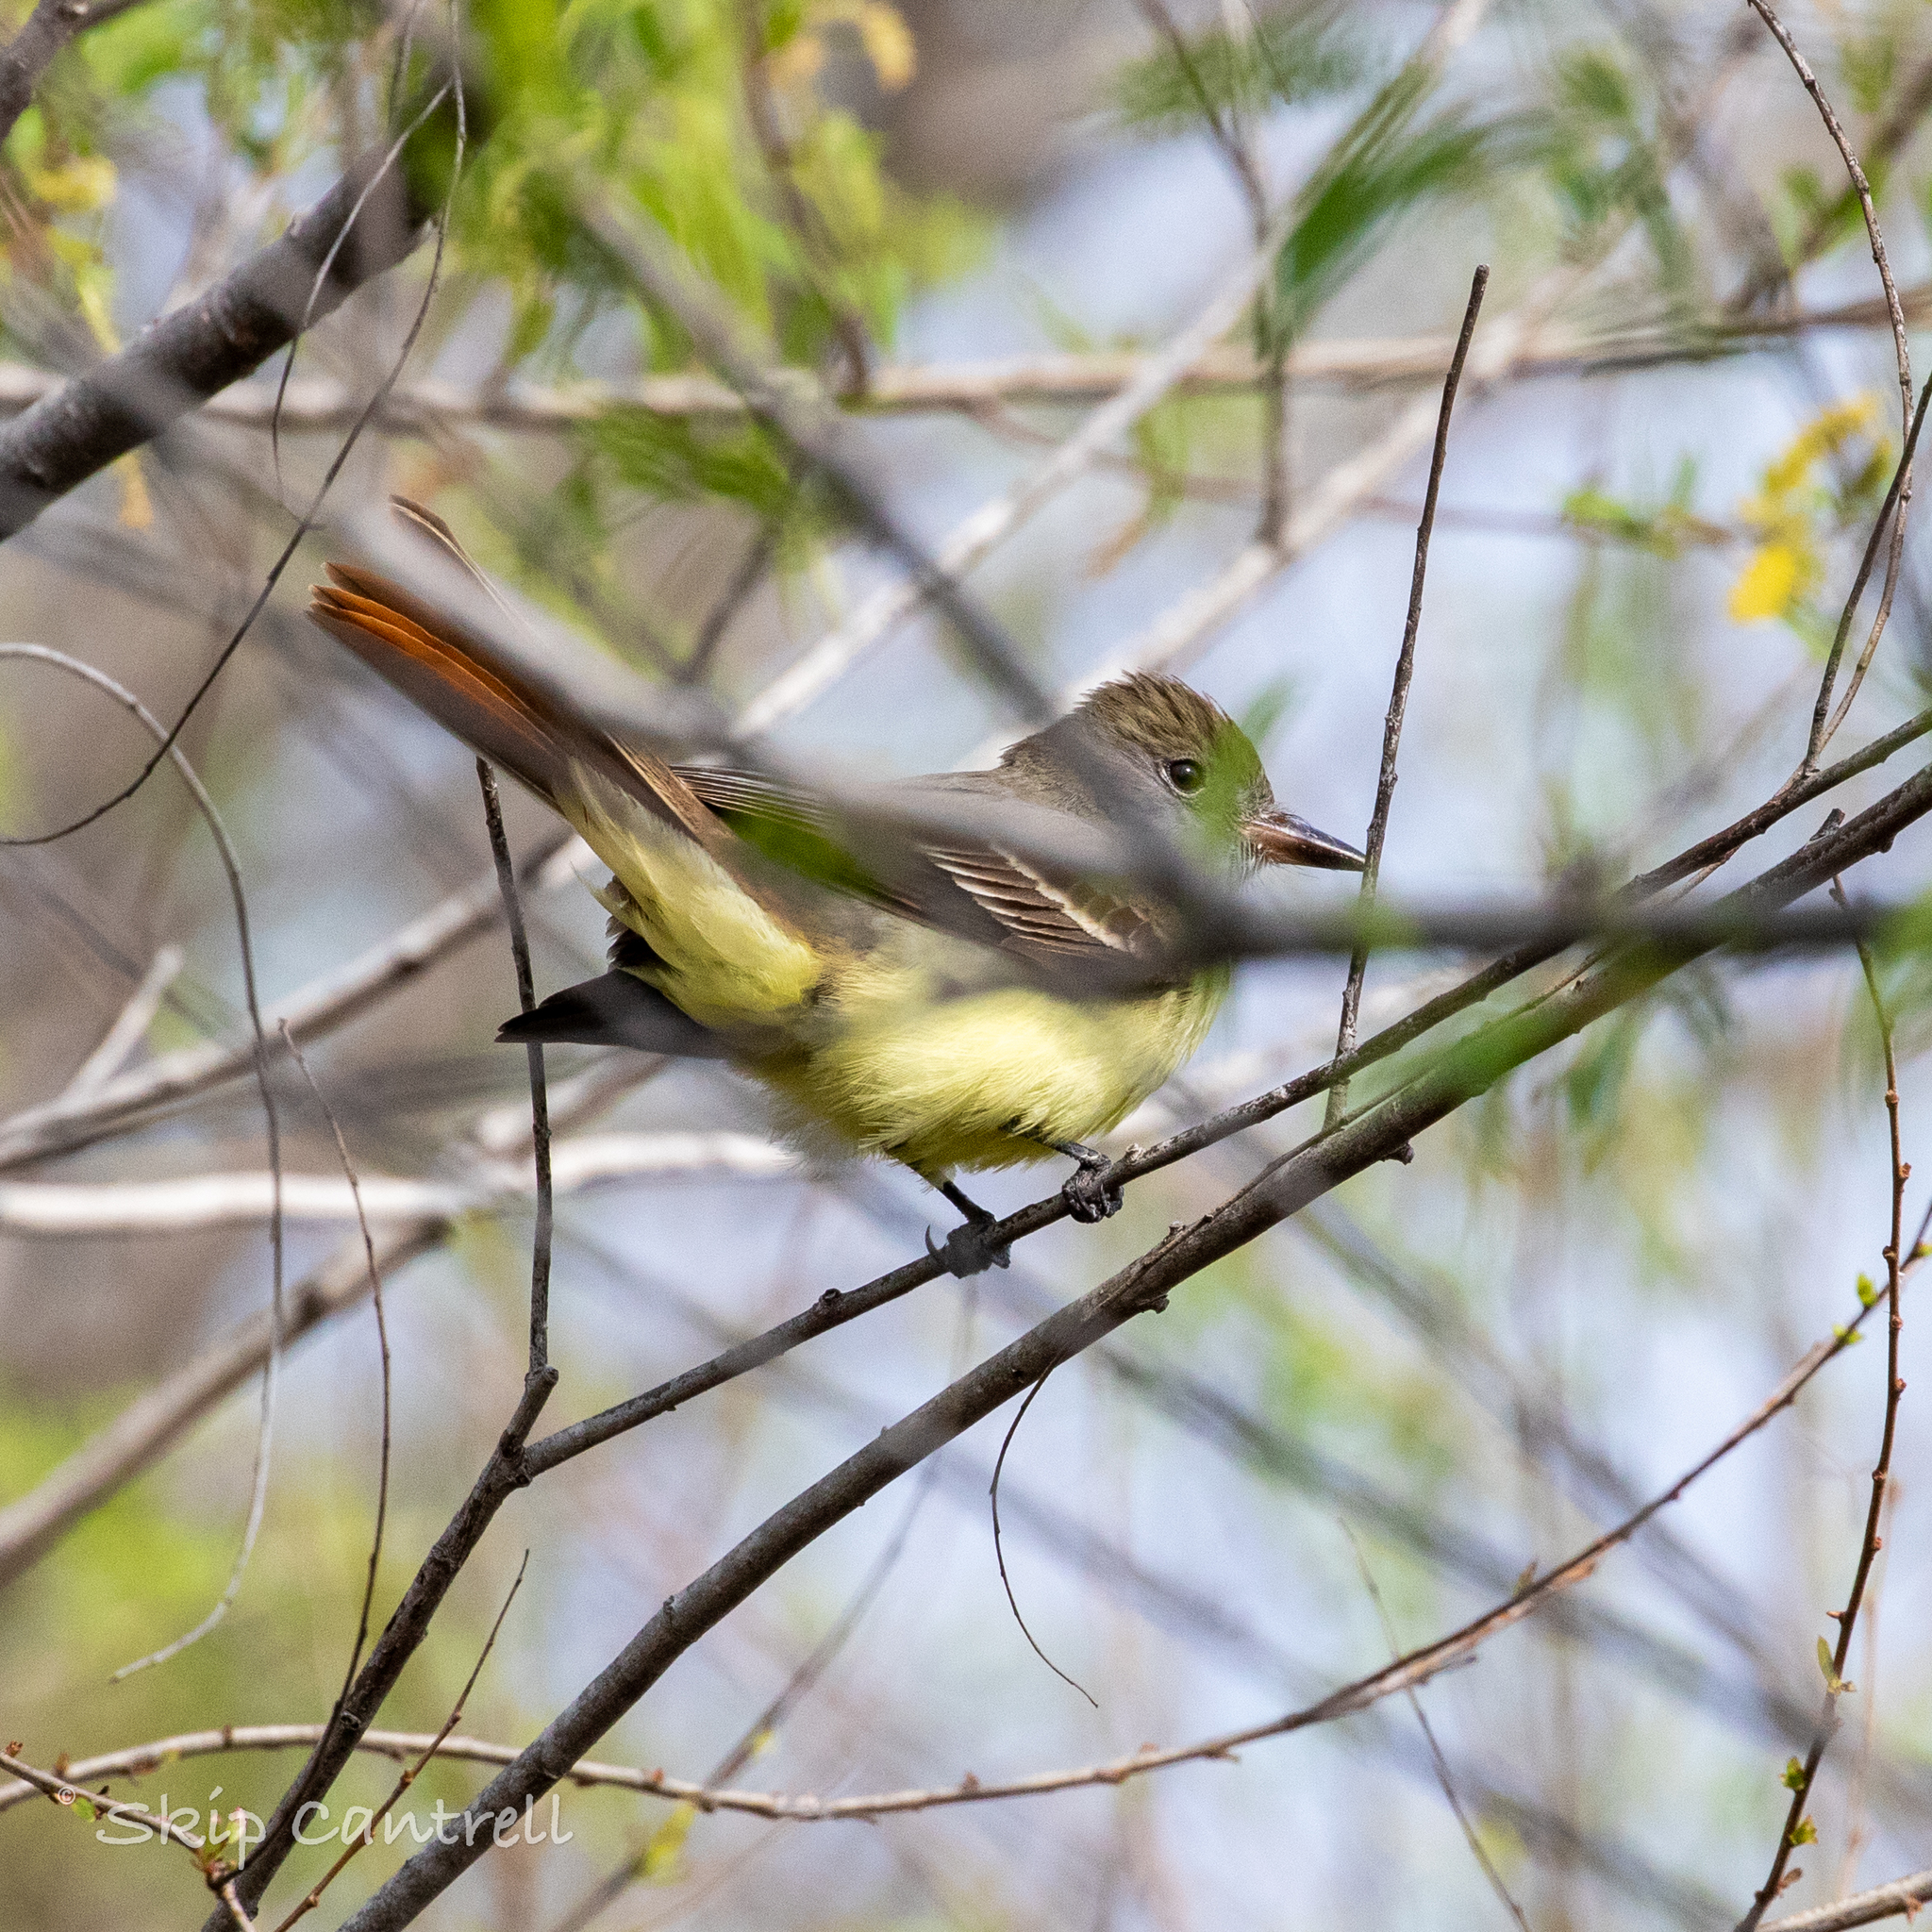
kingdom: Animalia
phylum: Chordata
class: Aves
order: Passeriformes
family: Tyrannidae
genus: Myiarchus
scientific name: Myiarchus crinitus
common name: Great crested flycatcher
